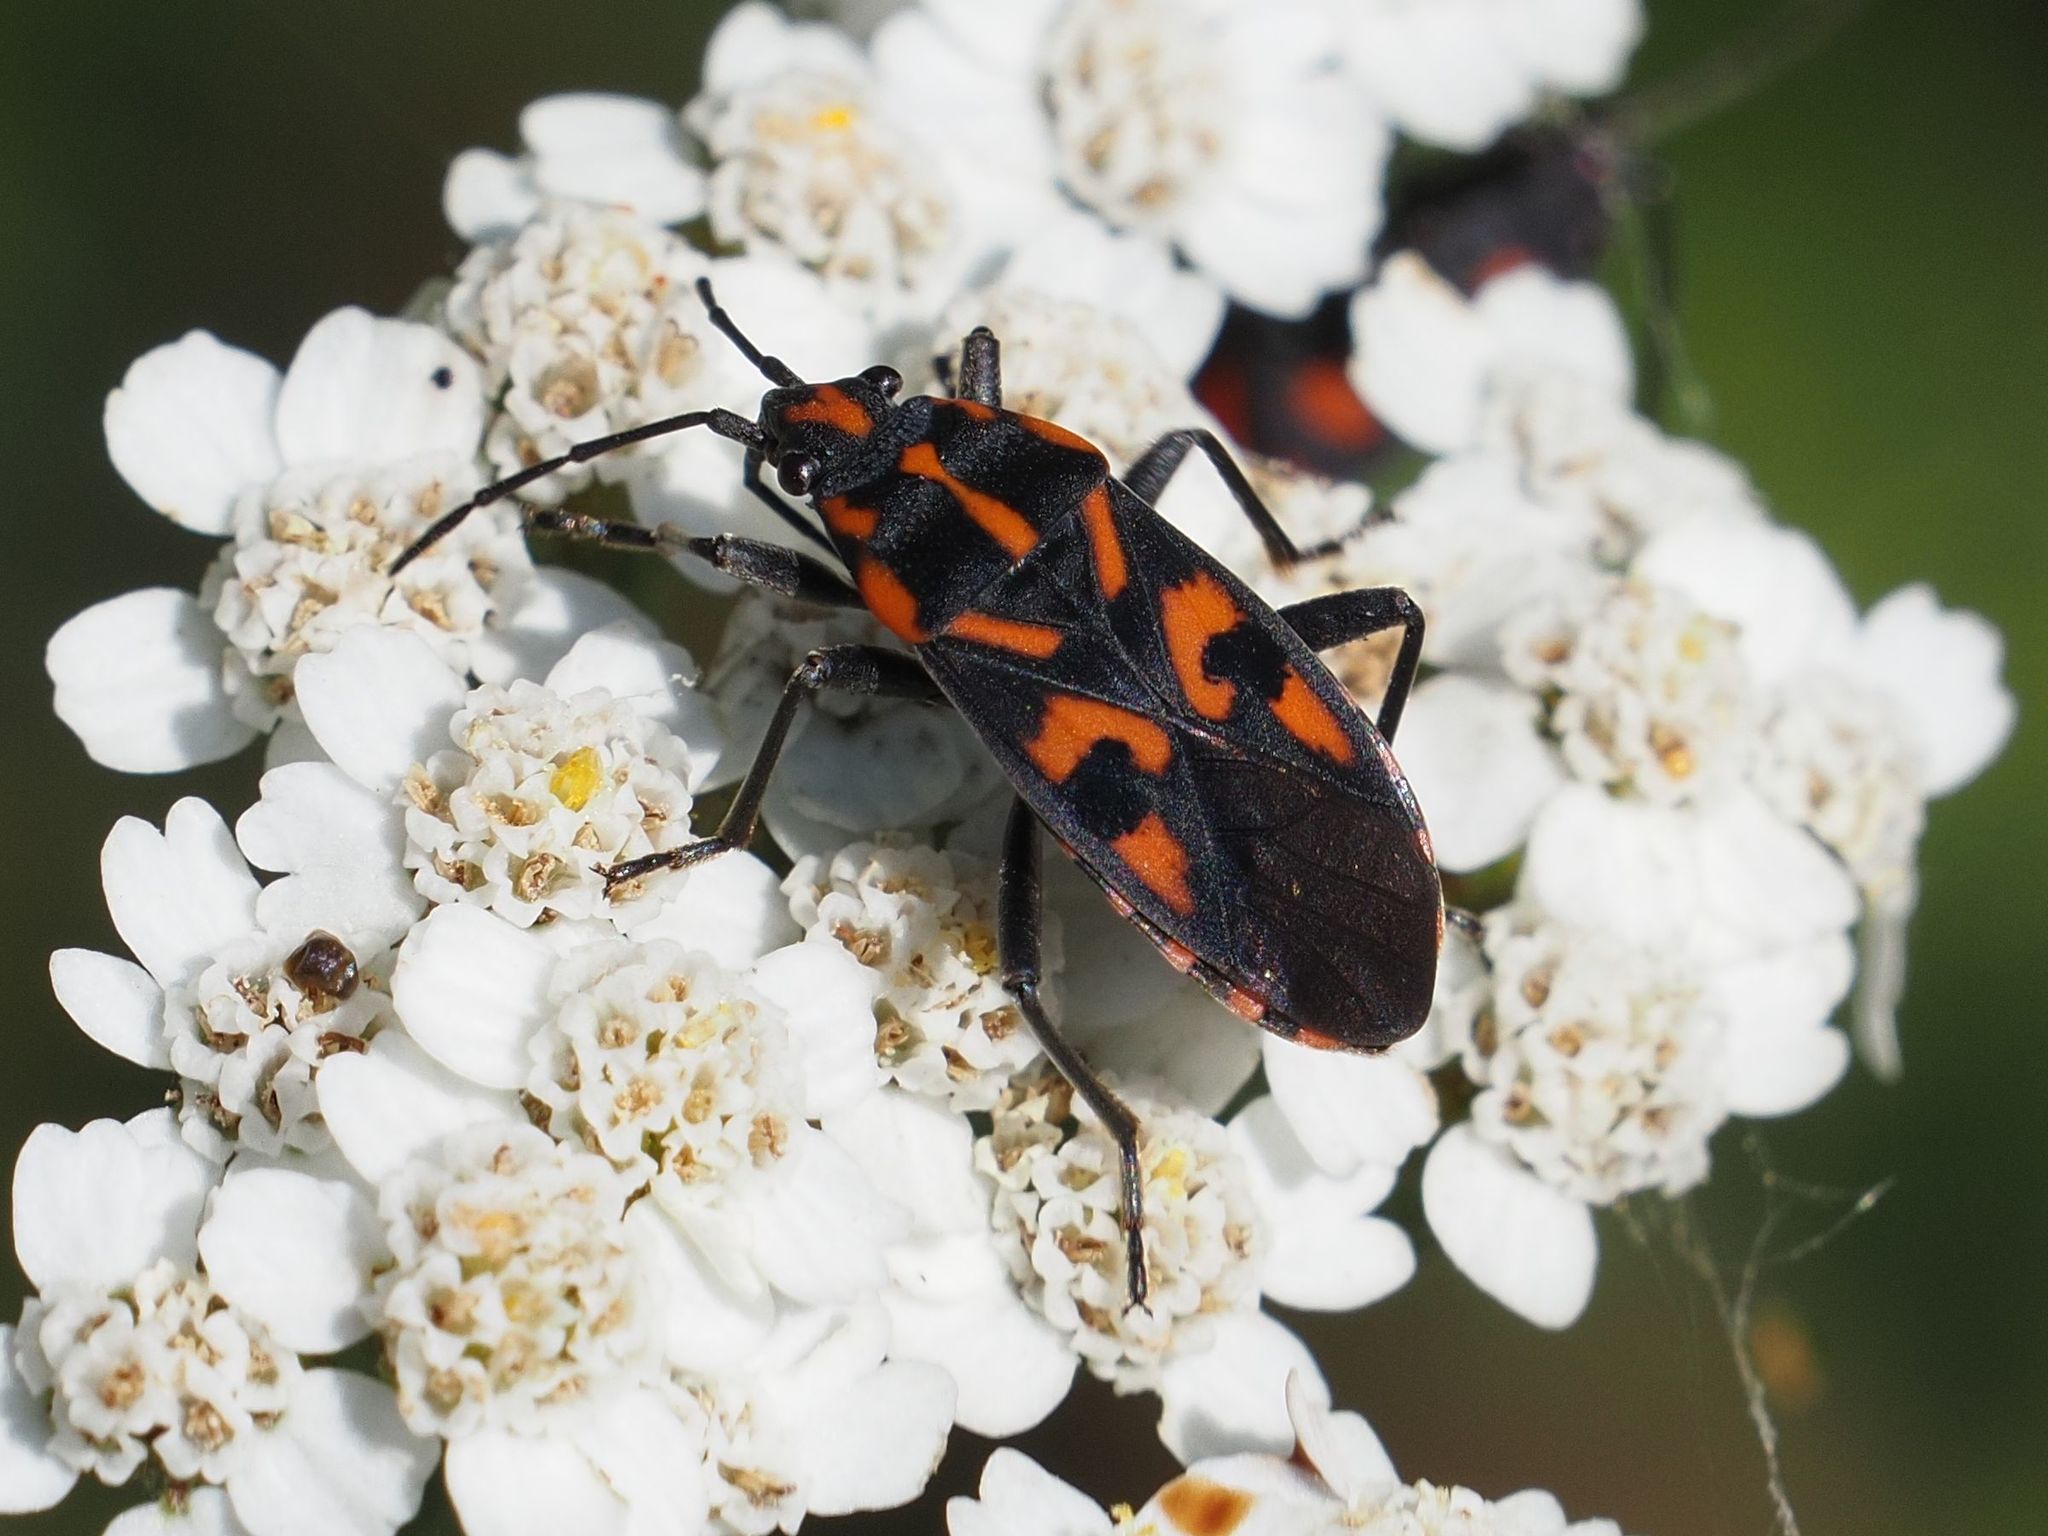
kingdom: Animalia
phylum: Arthropoda
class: Insecta
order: Hemiptera
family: Lygaeidae
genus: Spilostethus
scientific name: Spilostethus saxatilis
